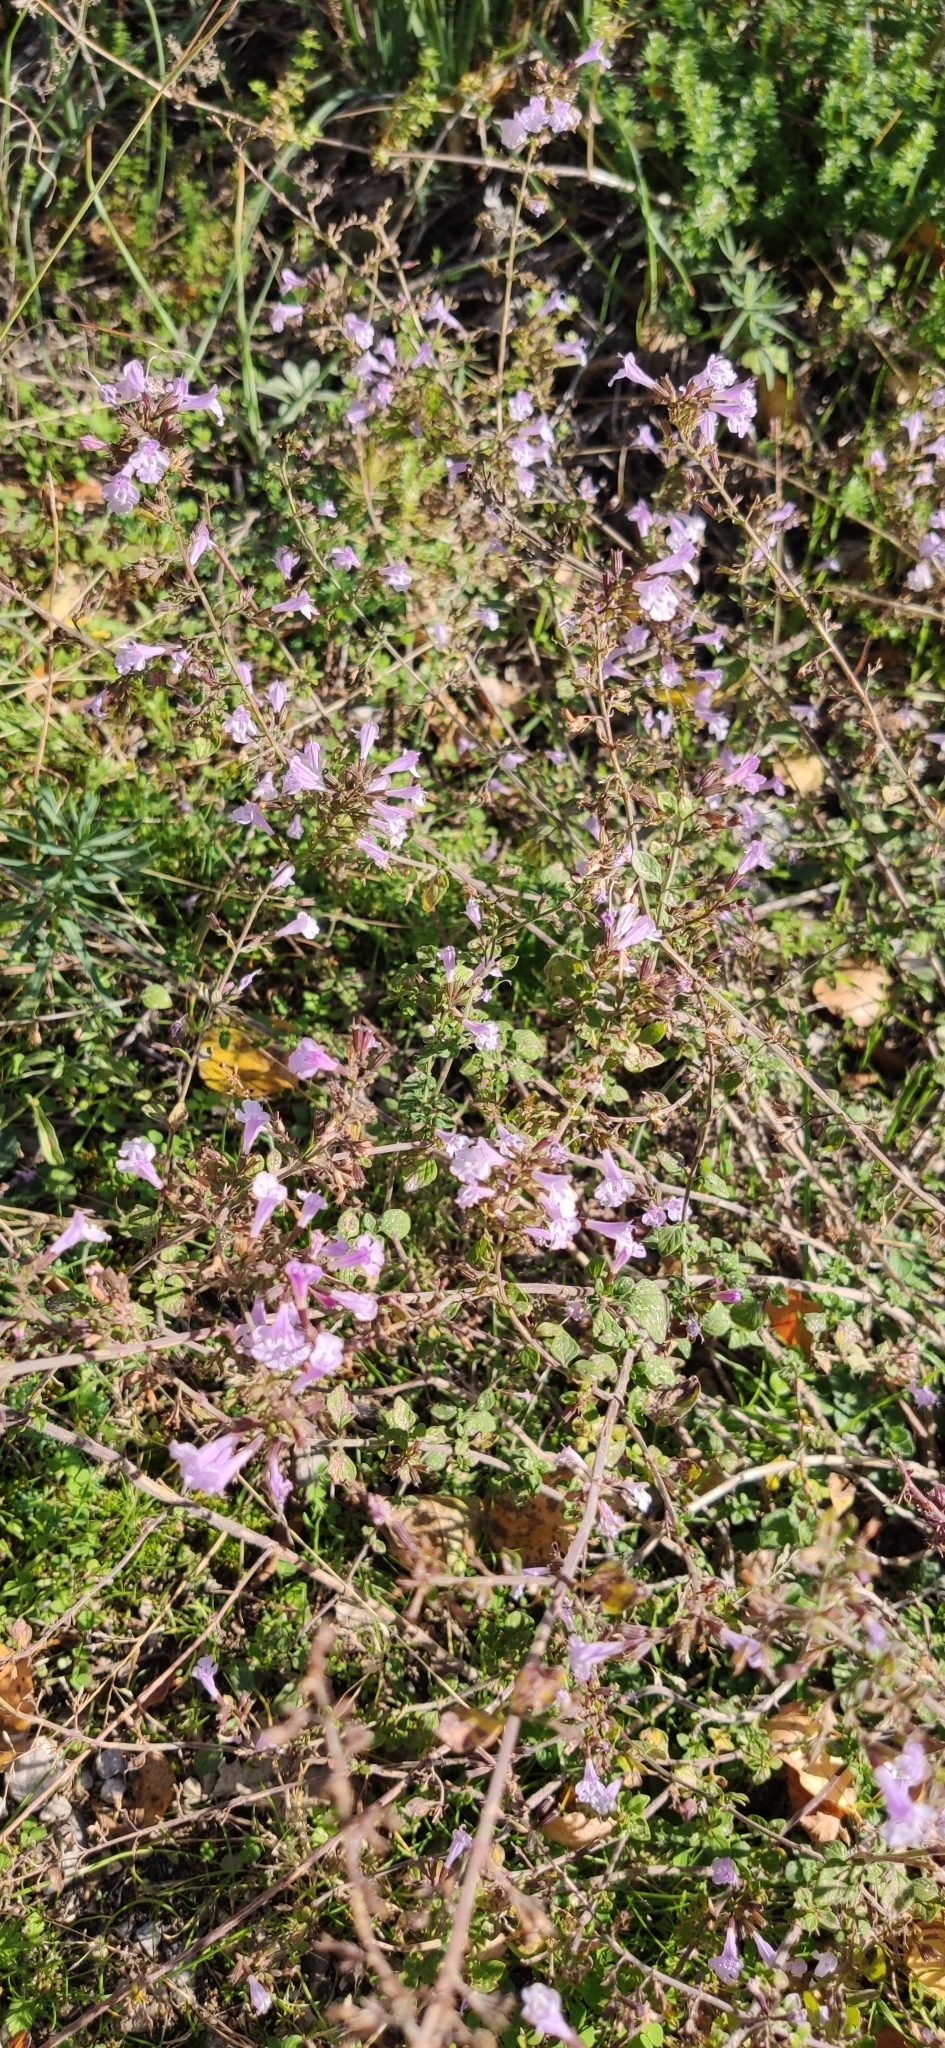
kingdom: Plantae
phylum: Tracheophyta
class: Magnoliopsida
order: Lamiales
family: Lamiaceae
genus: Clinopodium
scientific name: Clinopodium nepeta
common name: Lesser calamint
